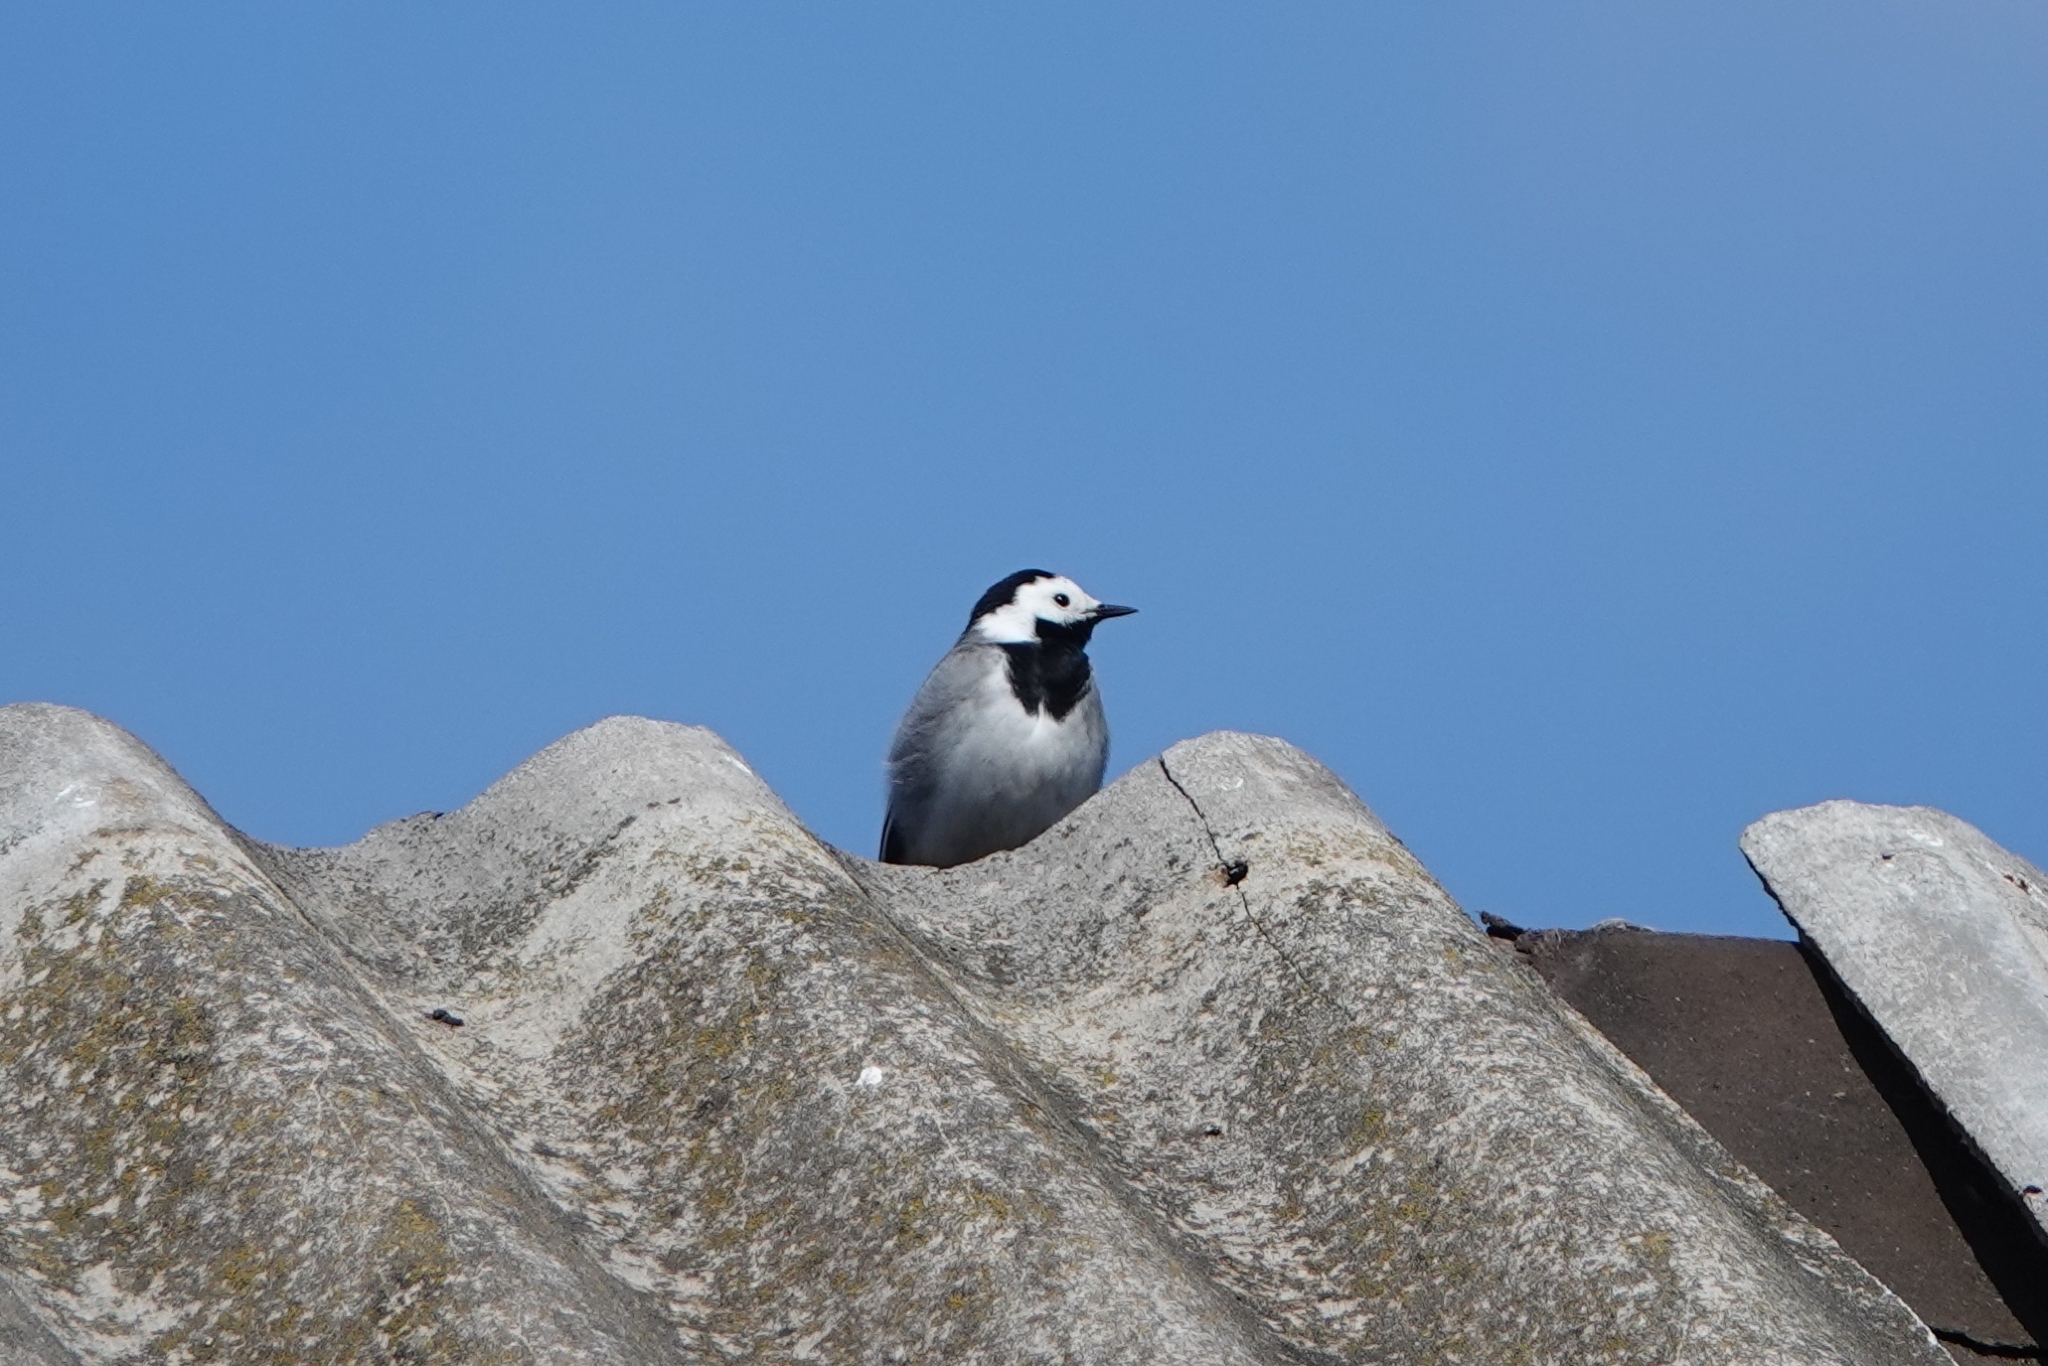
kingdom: Animalia
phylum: Chordata
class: Aves
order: Passeriformes
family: Motacillidae
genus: Motacilla
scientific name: Motacilla alba
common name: White wagtail
